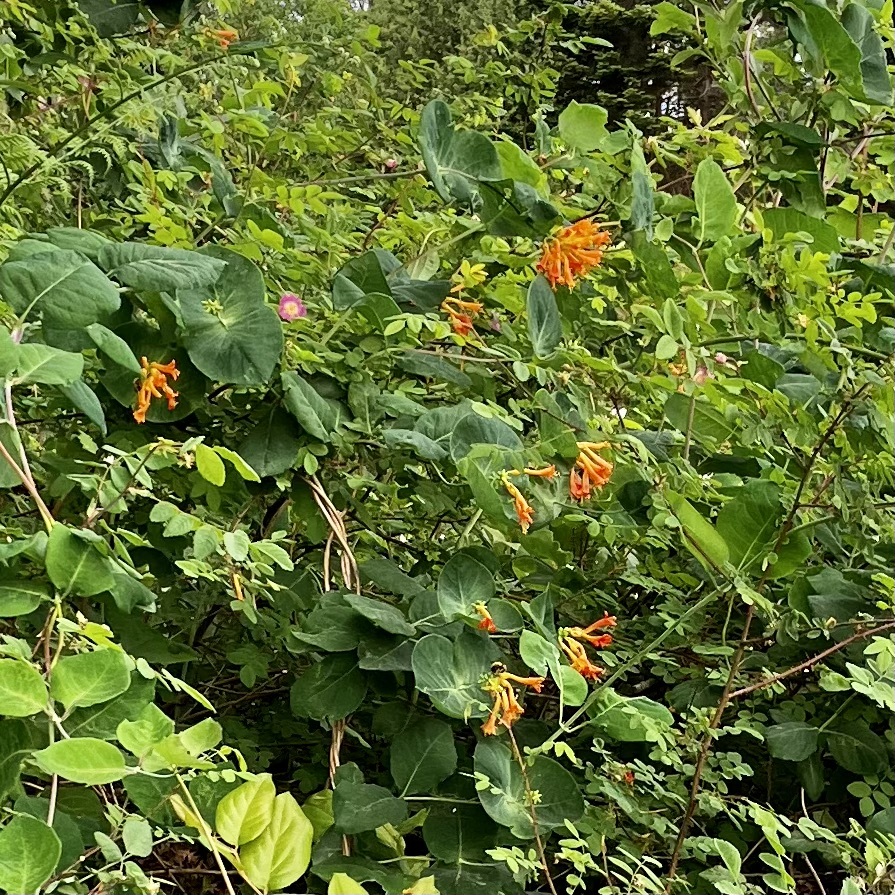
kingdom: Plantae
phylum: Tracheophyta
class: Magnoliopsida
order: Dipsacales
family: Caprifoliaceae
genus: Lonicera
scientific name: Lonicera ciliosa
